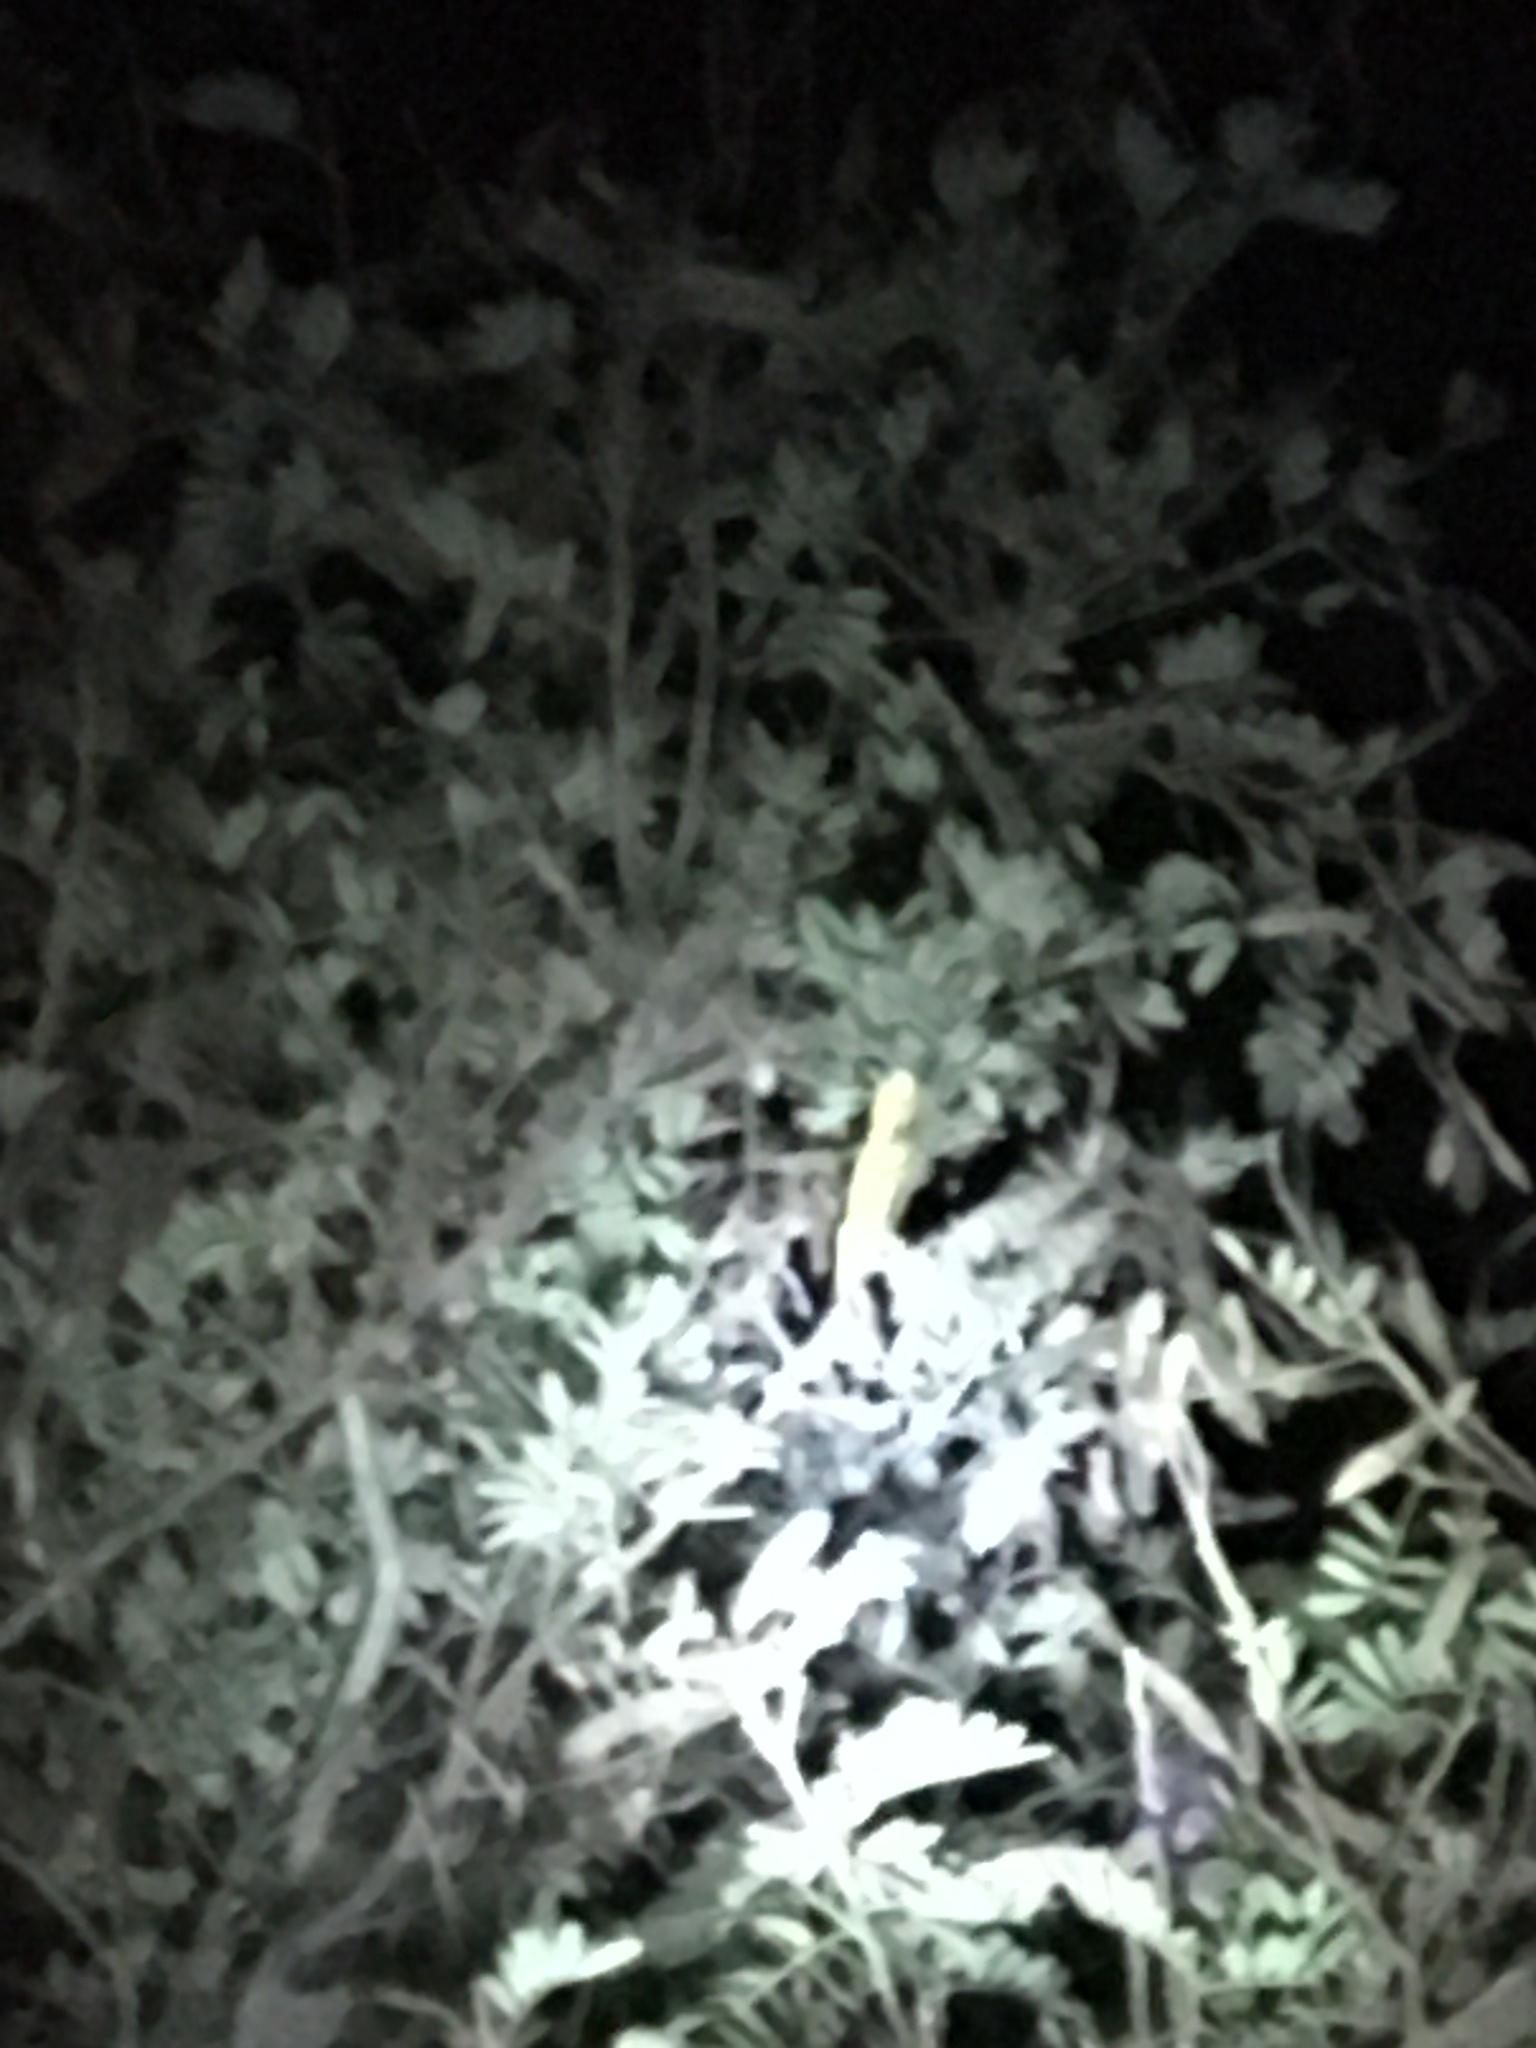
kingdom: Animalia
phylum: Chordata
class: Squamata
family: Chamaeleonidae
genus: Bradypodion
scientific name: Bradypodion pumilum
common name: Cape dwarf chameleon
